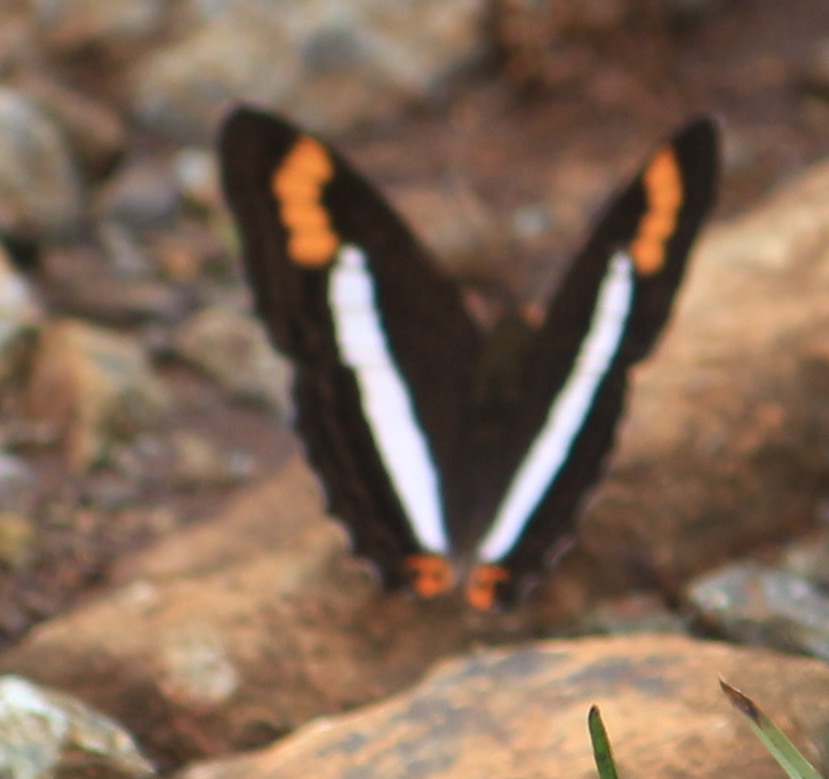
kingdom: Animalia
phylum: Arthropoda
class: Insecta
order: Lepidoptera
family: Nymphalidae
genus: Limenitis
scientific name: Limenitis pithys
